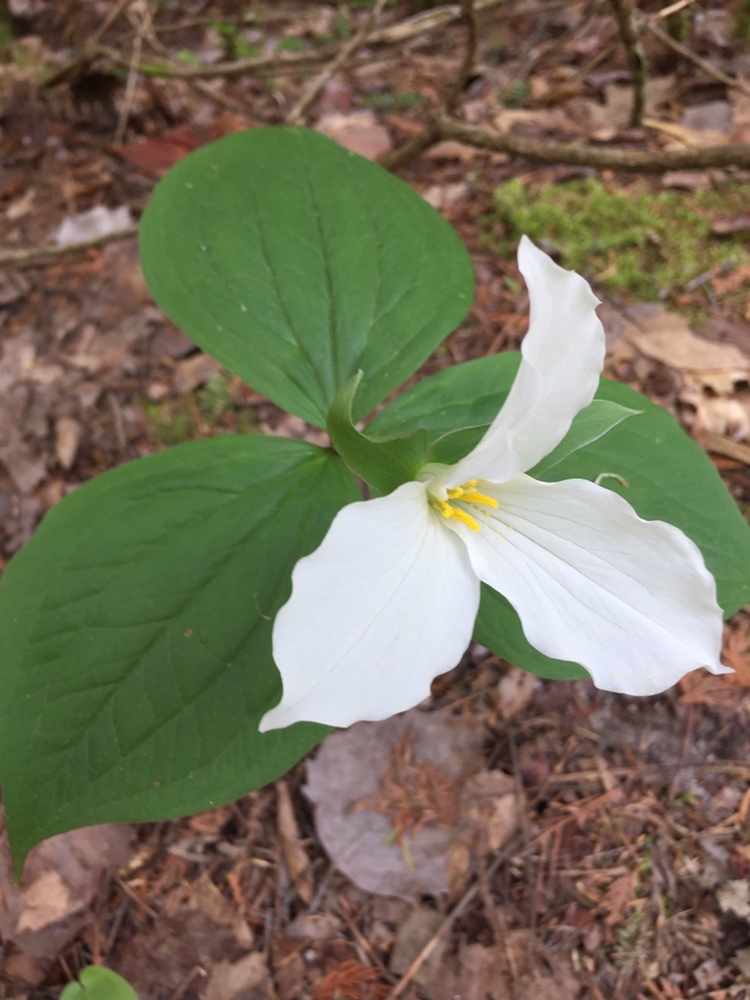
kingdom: Plantae
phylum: Tracheophyta
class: Liliopsida
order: Liliales
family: Melanthiaceae
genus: Trillium
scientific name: Trillium grandiflorum
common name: Great white trillium
